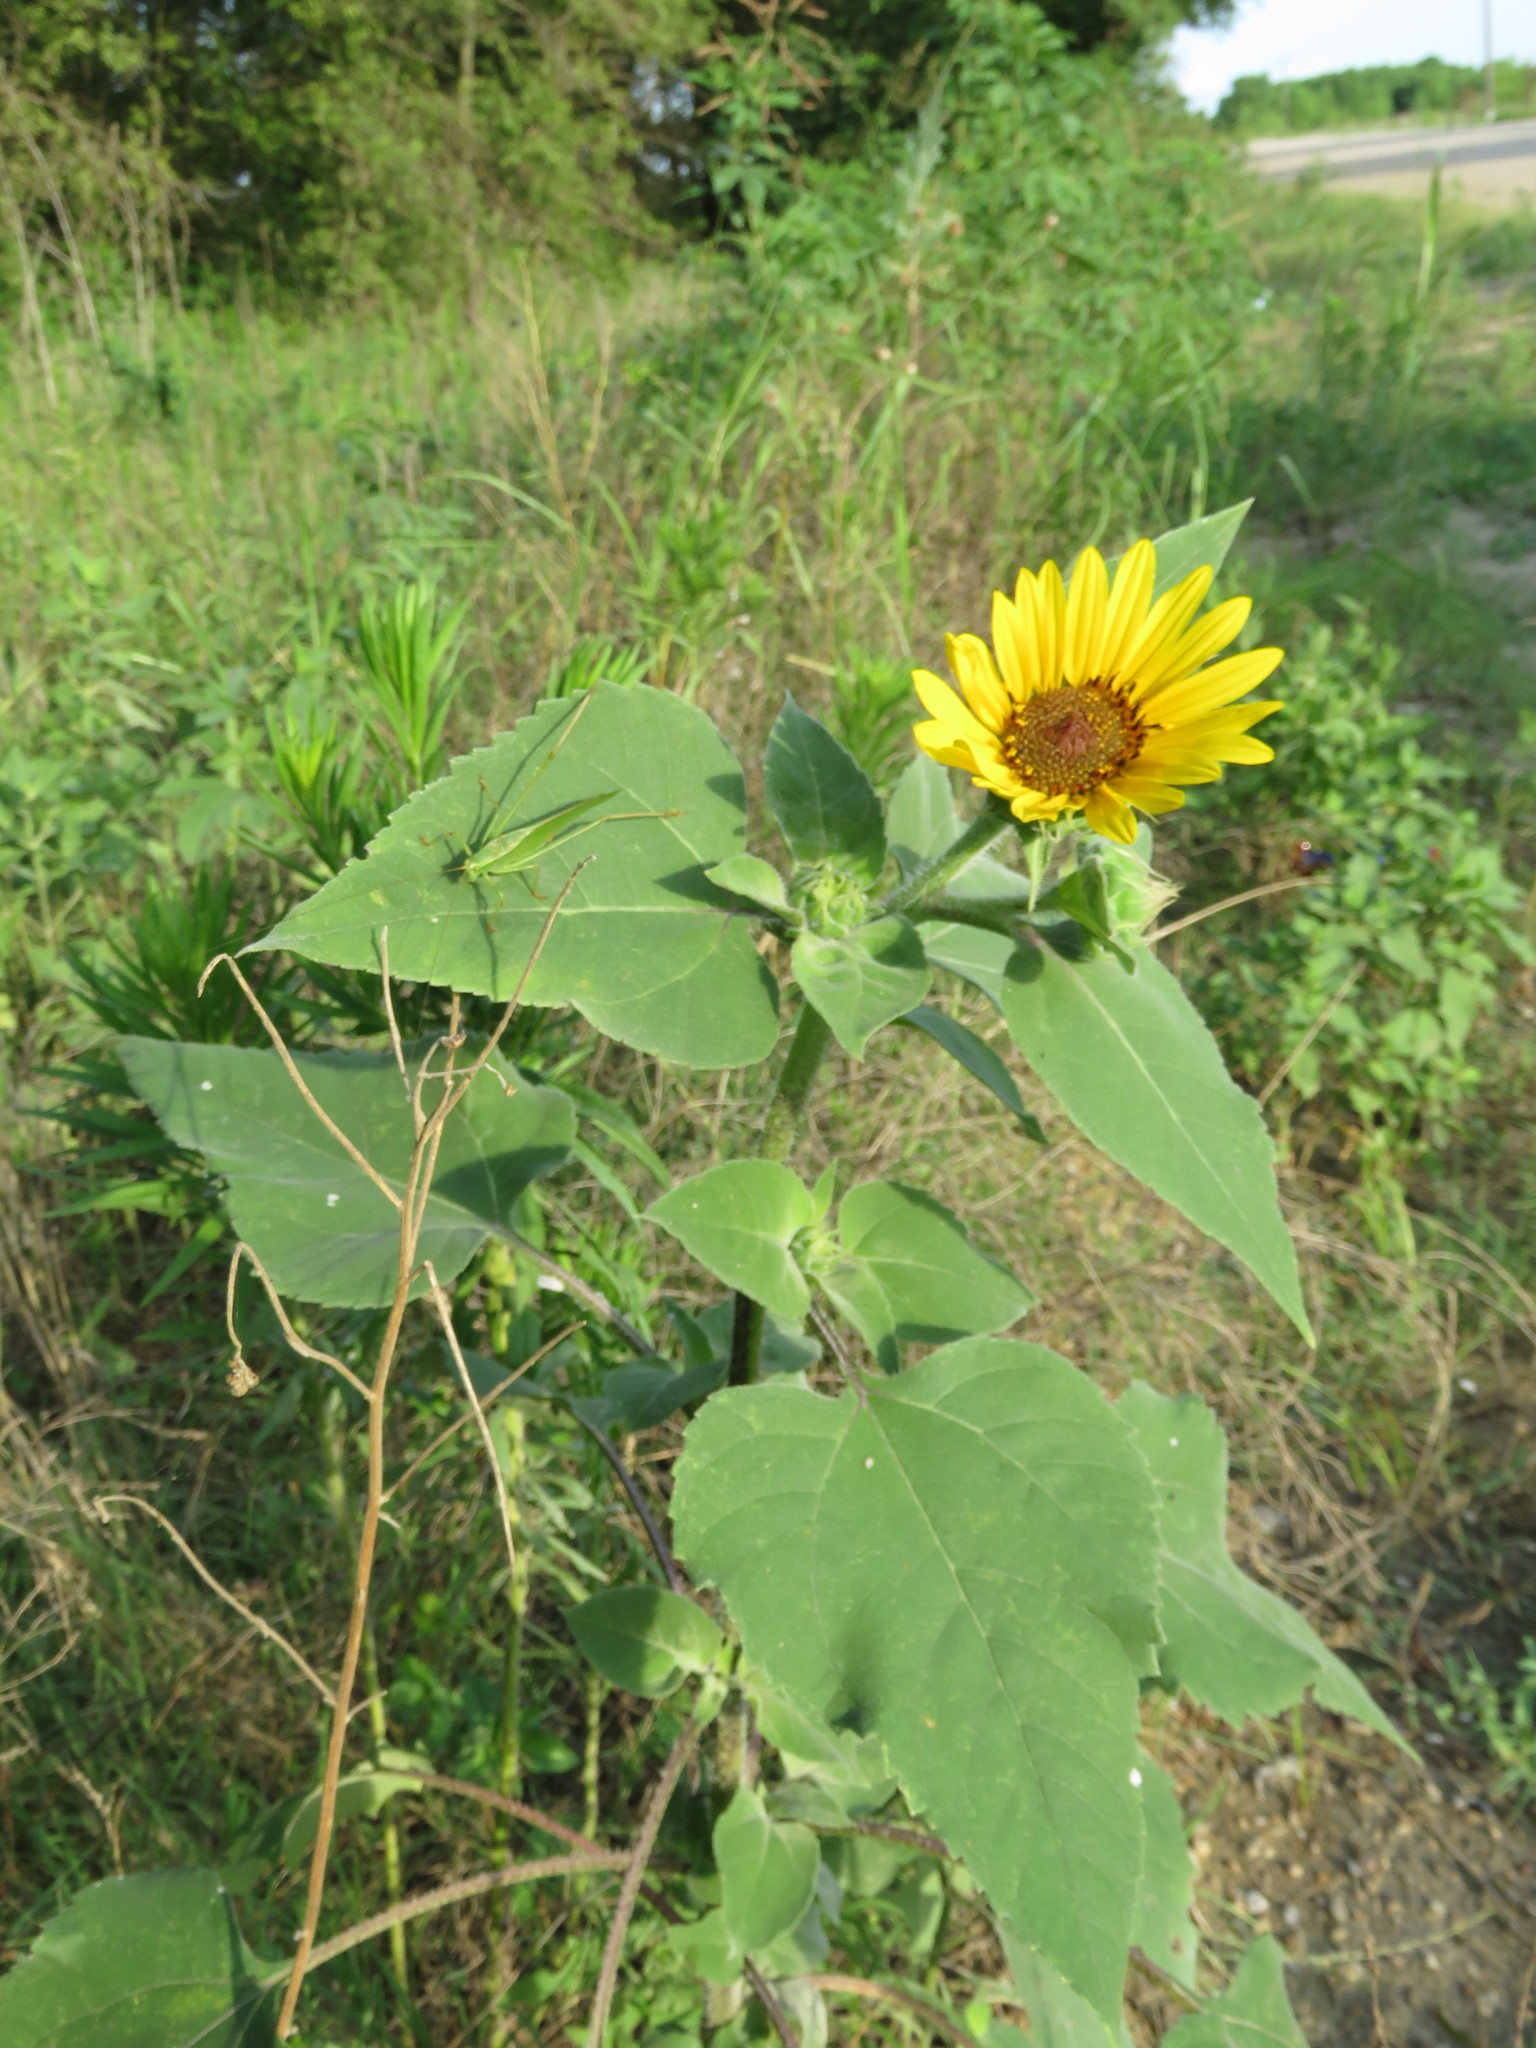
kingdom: Plantae
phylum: Tracheophyta
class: Magnoliopsida
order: Asterales
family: Asteraceae
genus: Helianthus
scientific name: Helianthus annuus
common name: Sunflower
